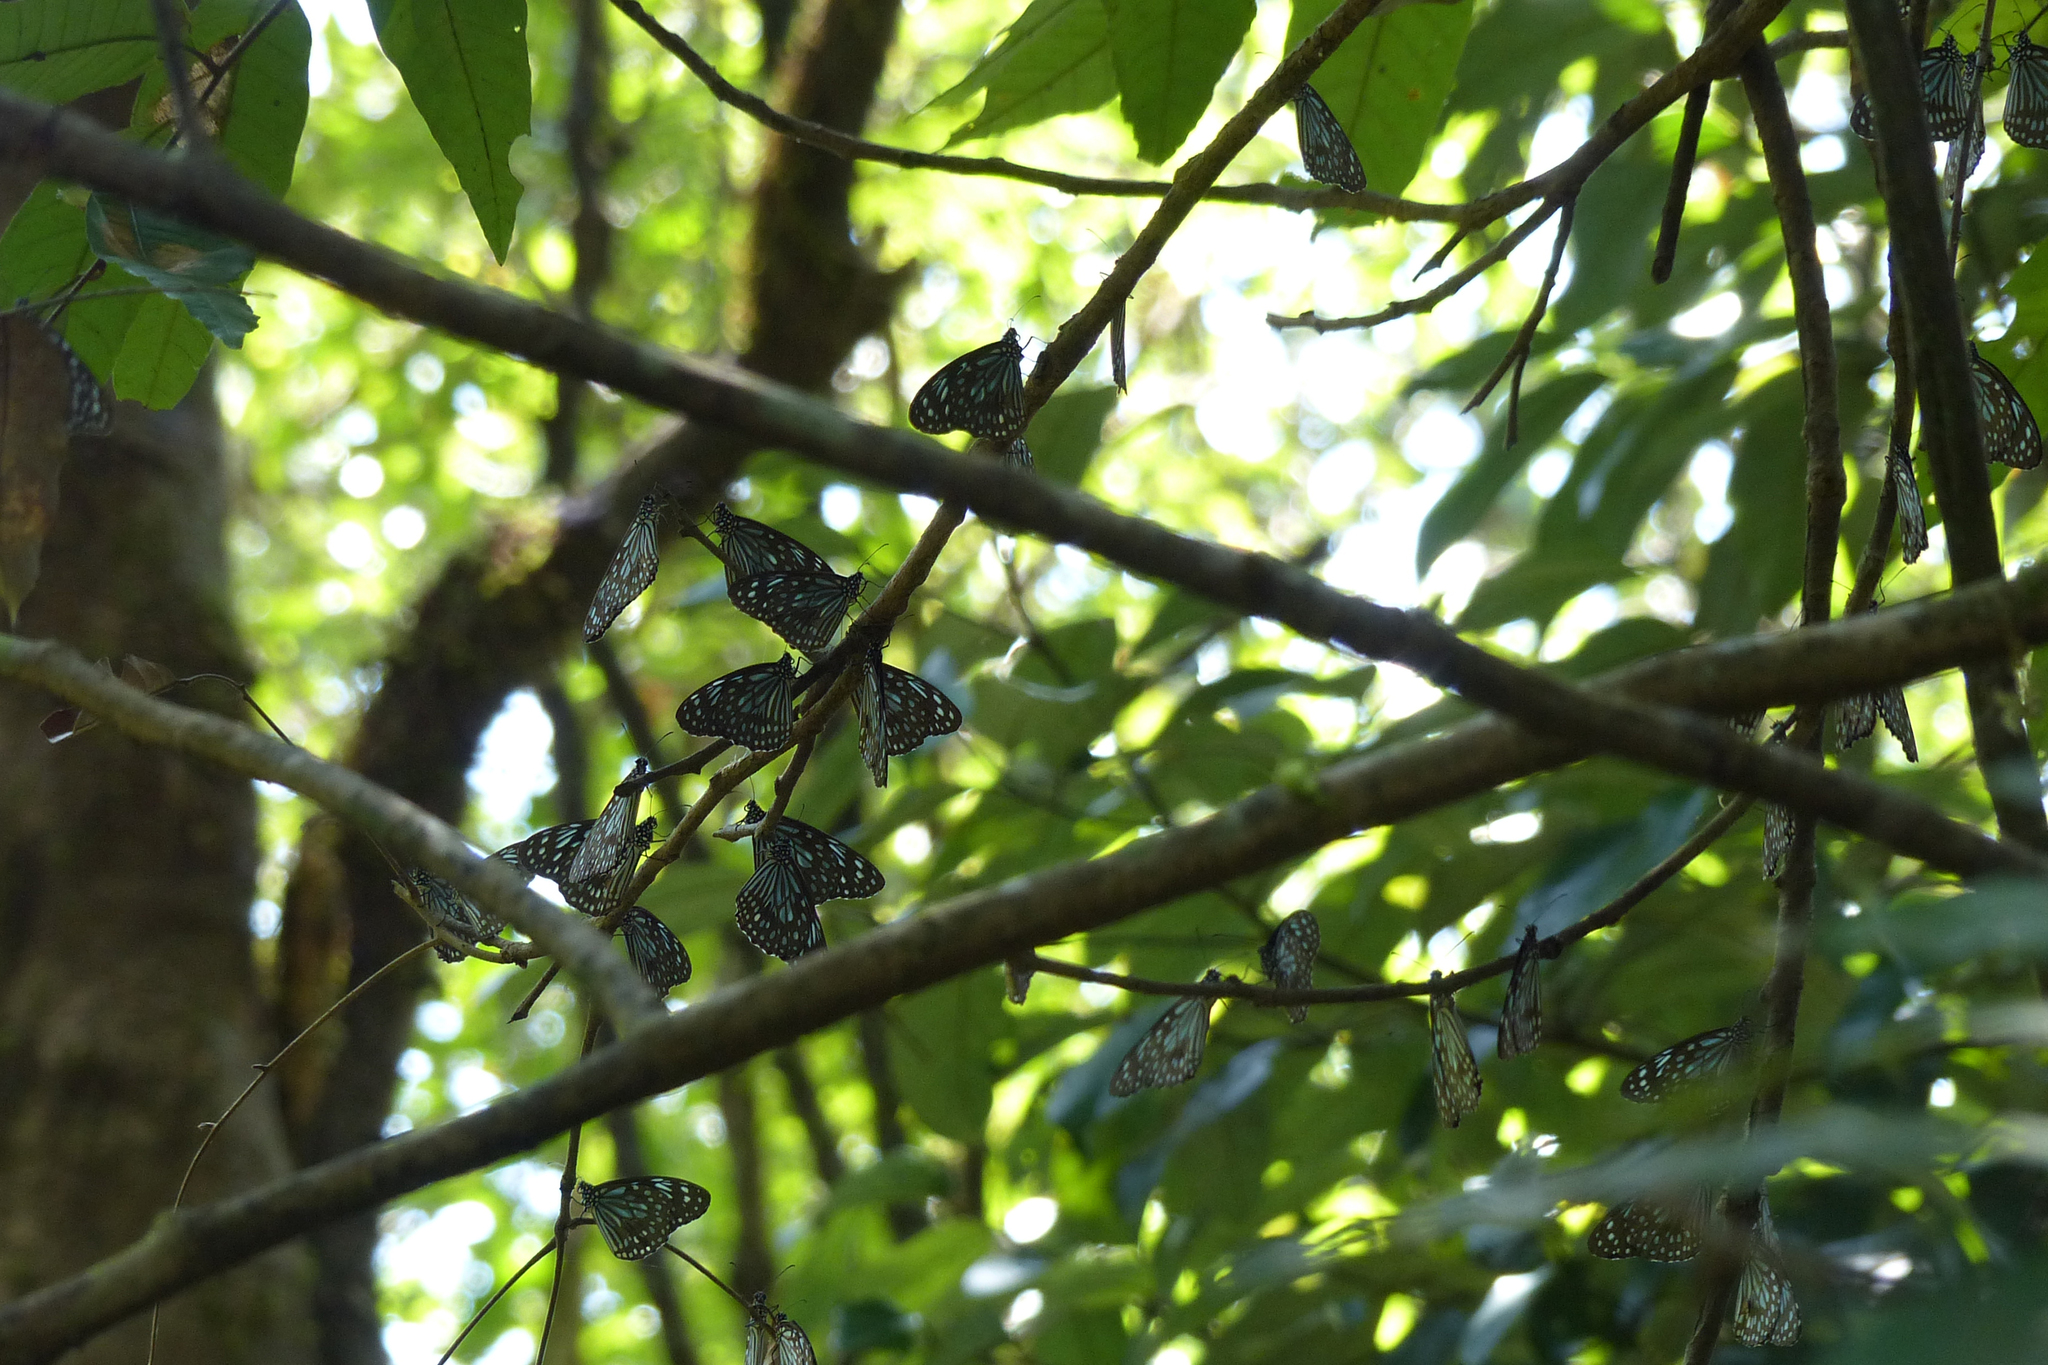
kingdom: Animalia
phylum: Arthropoda
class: Insecta
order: Lepidoptera
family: Nymphalidae
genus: Tirumala
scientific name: Tirumala septentrionis
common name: Dark blue tiger butterfly
